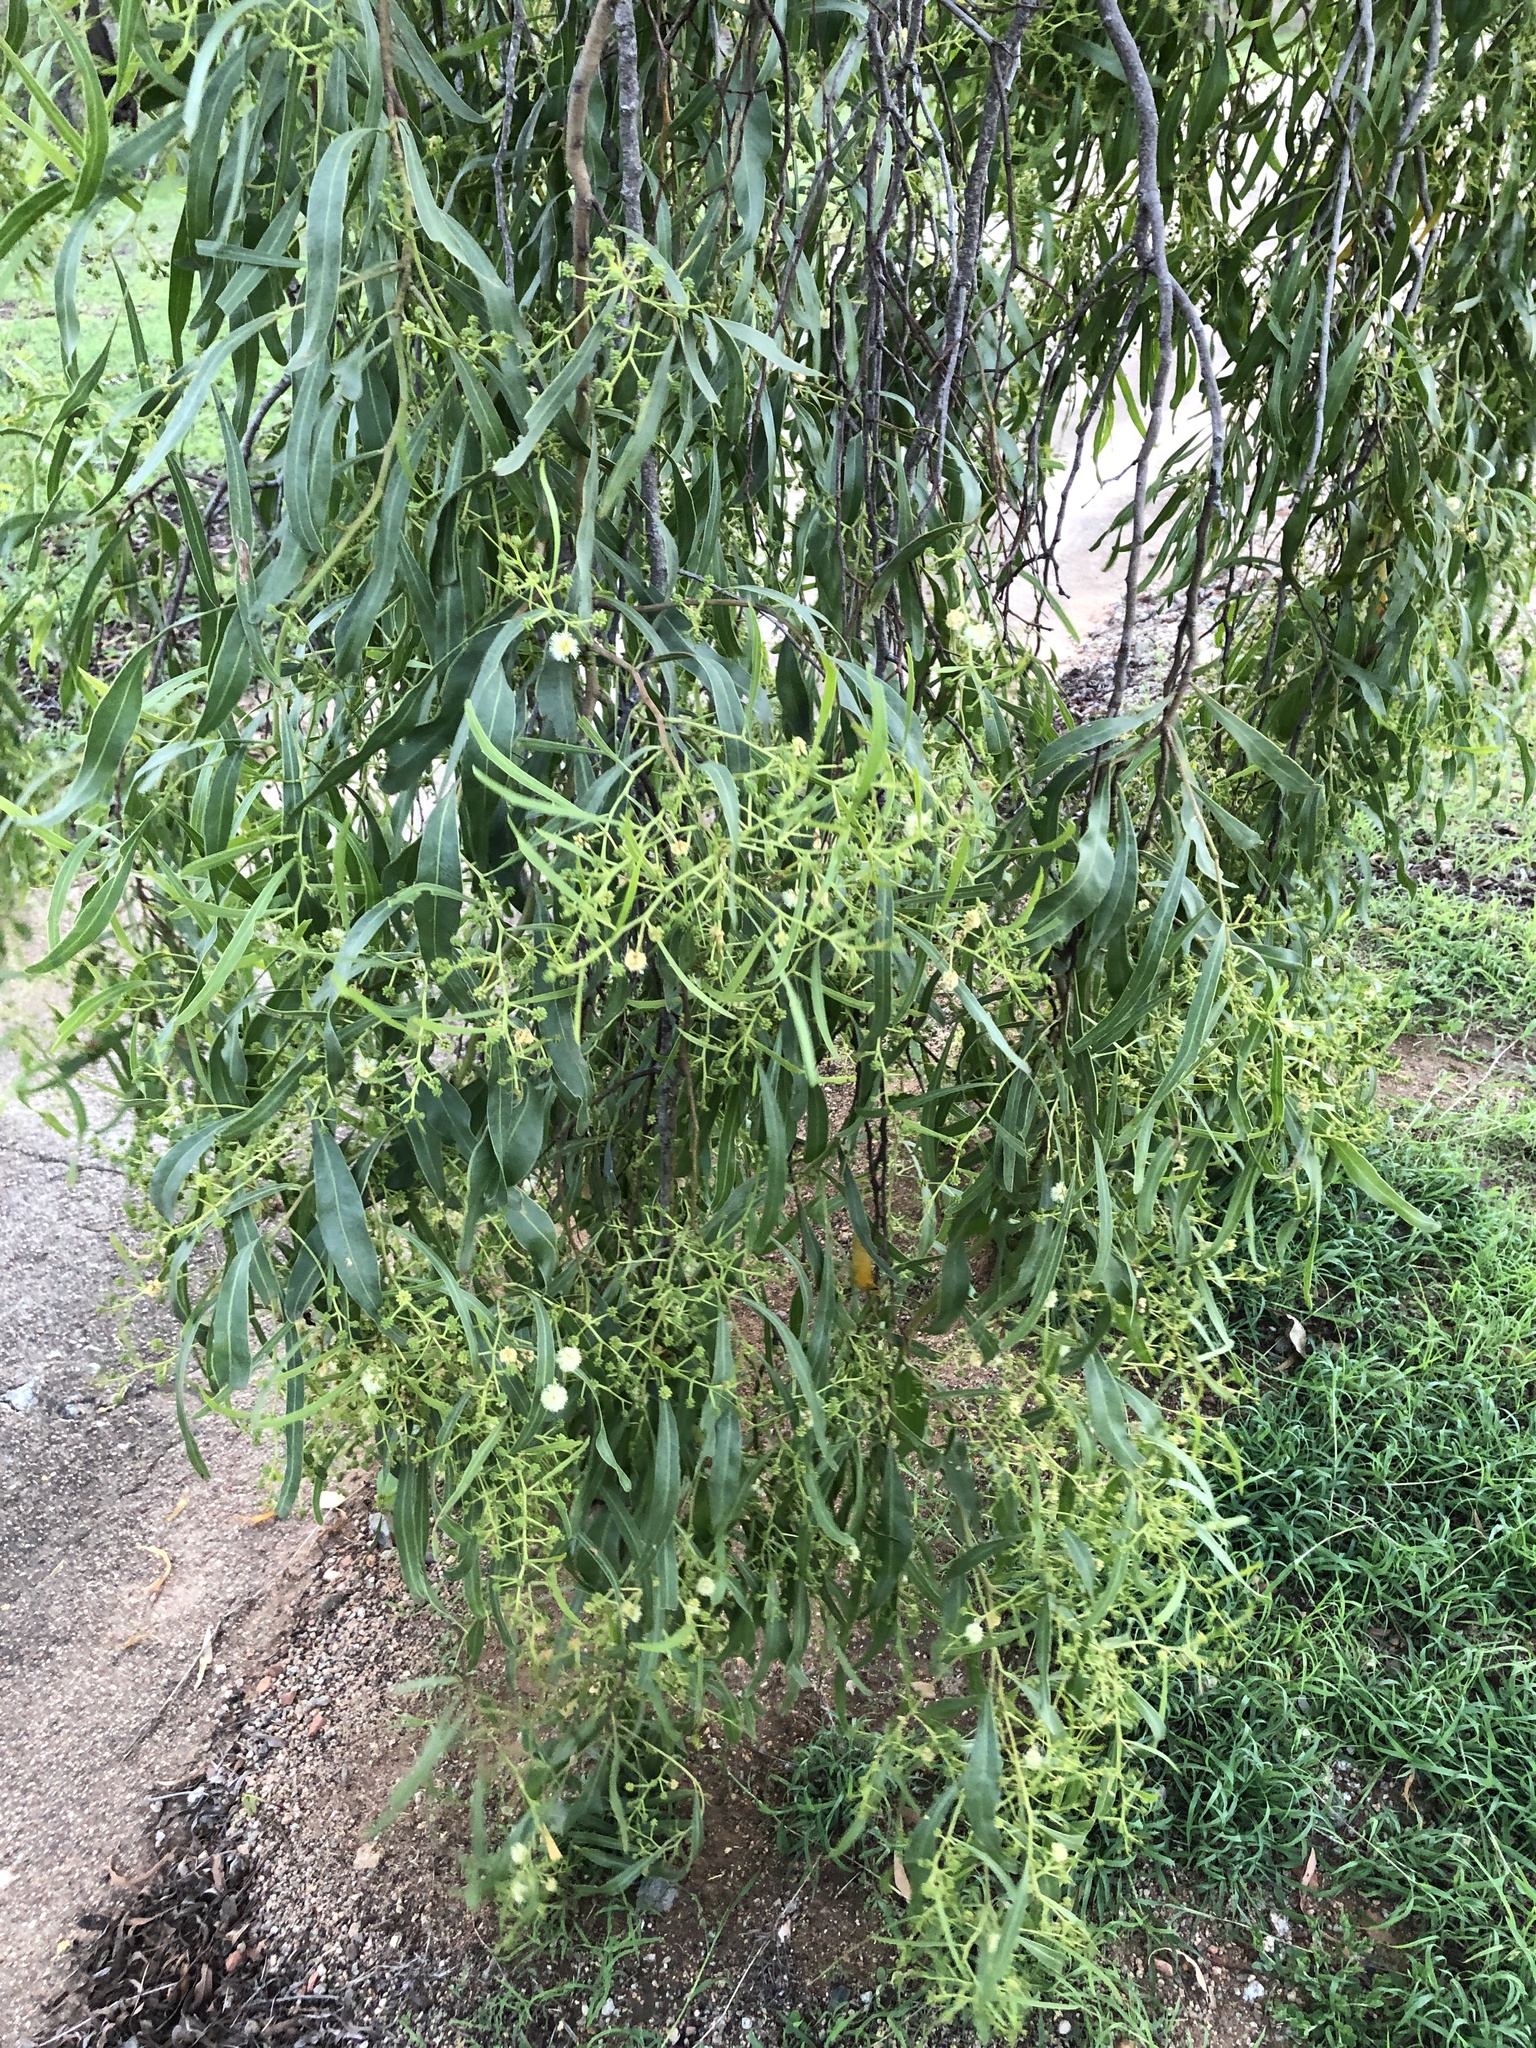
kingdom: Plantae
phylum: Tracheophyta
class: Magnoliopsida
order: Fabales
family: Fabaceae
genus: Acacia
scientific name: Acacia salicina
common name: Broughton willow wattle
